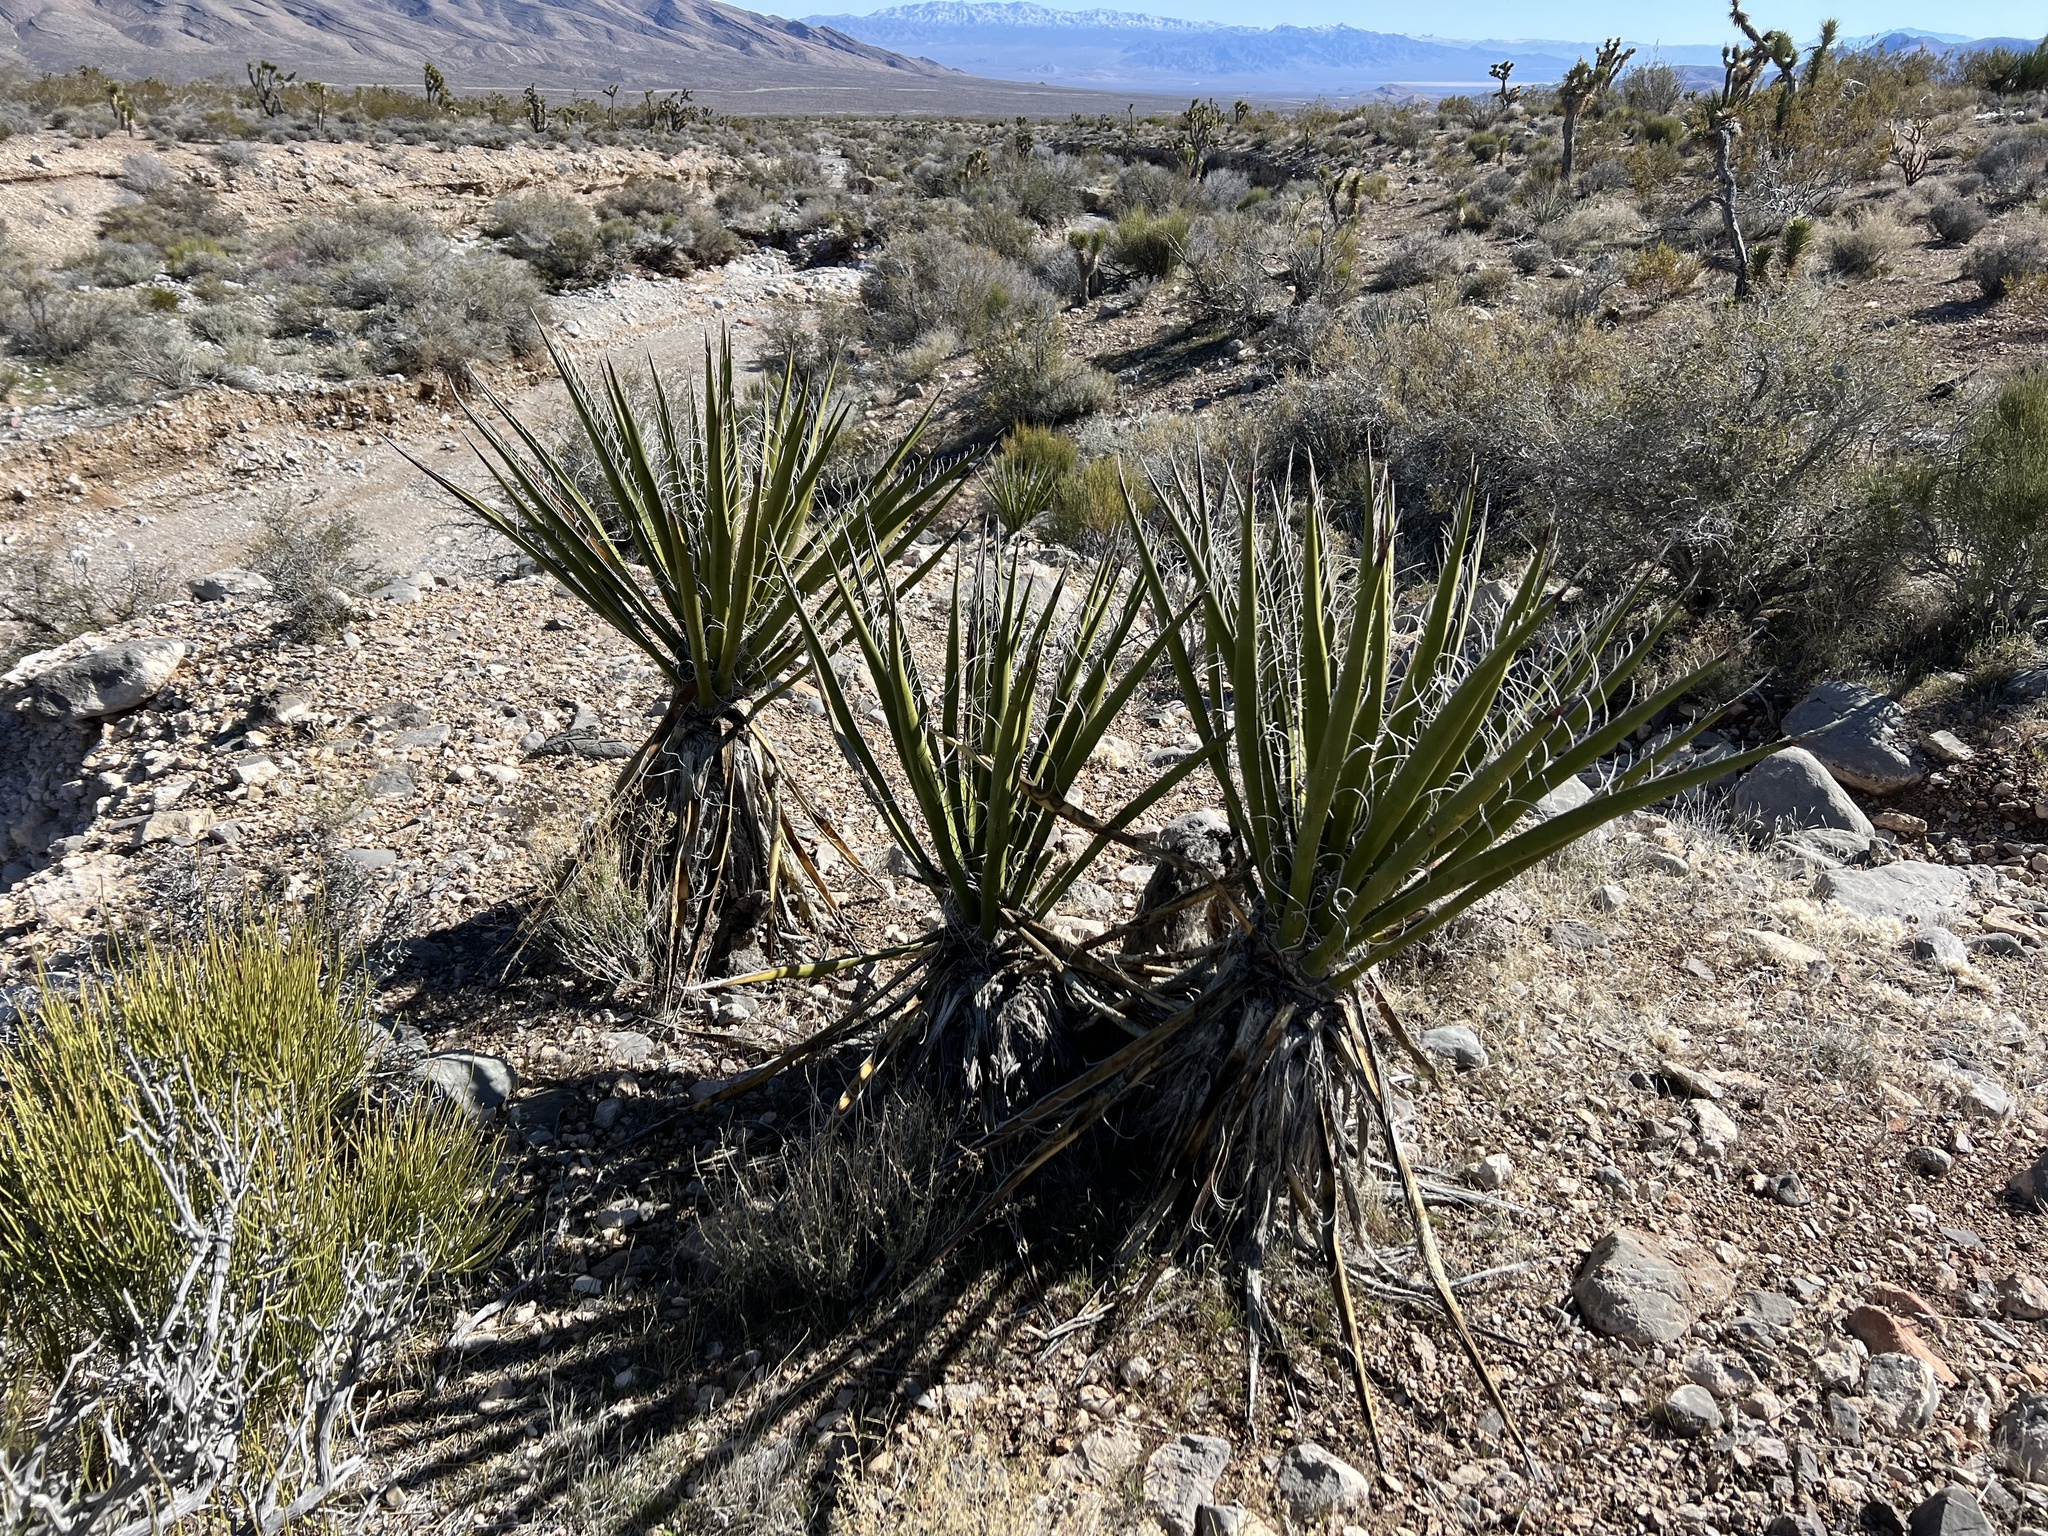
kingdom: Plantae
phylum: Tracheophyta
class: Liliopsida
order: Asparagales
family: Asparagaceae
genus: Yucca
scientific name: Yucca schidigera
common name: Mojave yucca
